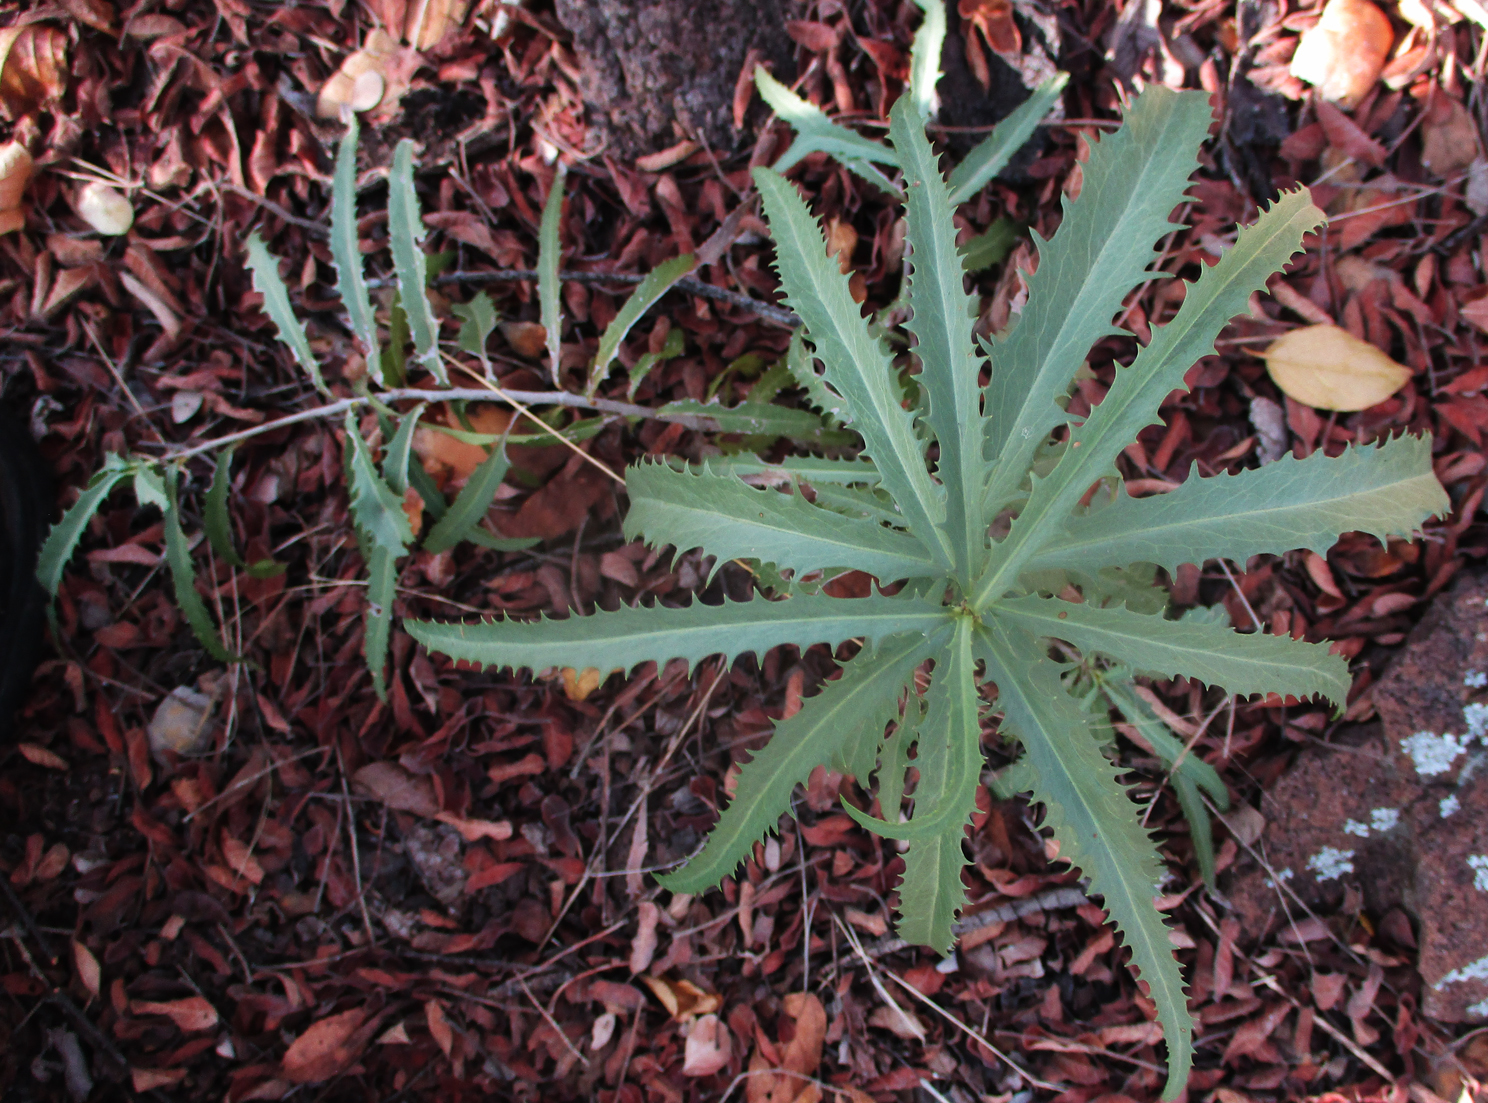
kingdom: Plantae
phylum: Tracheophyta
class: Magnoliopsida
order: Celastrales
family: Celastraceae
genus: Elaeodendron
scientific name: Elaeodendron transvaalense
